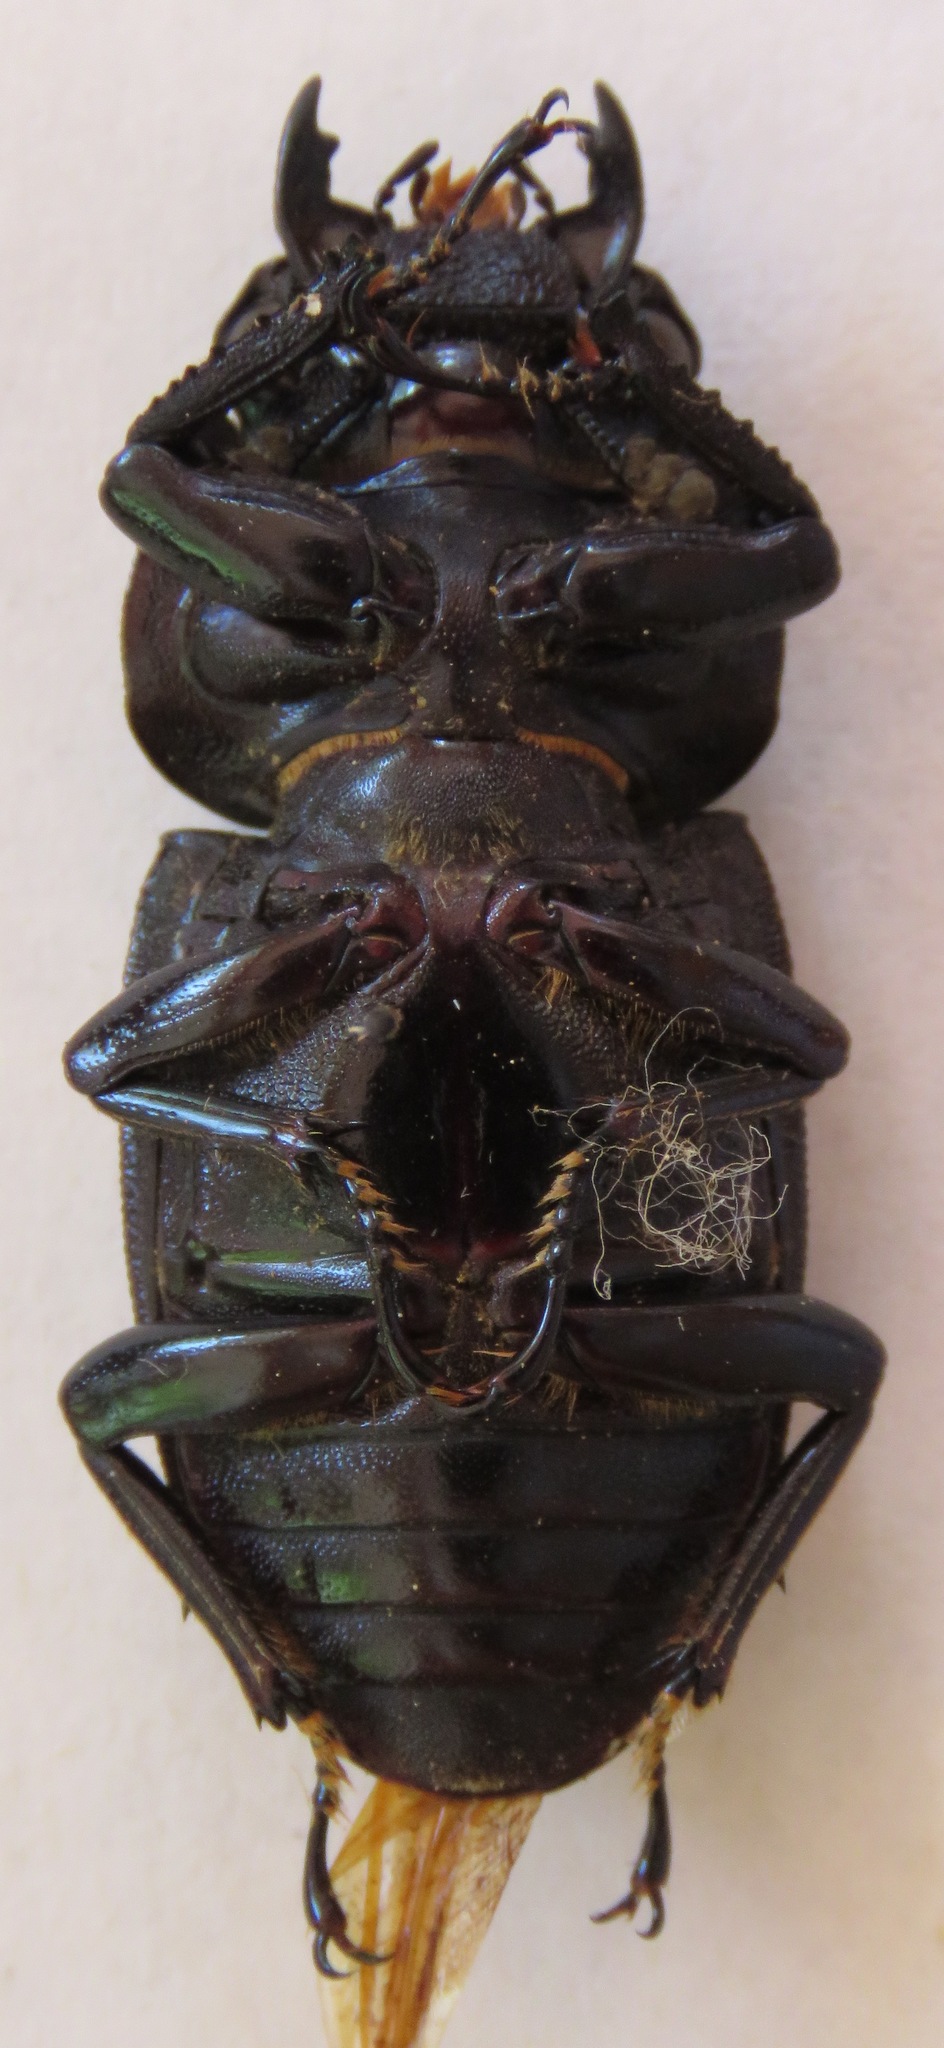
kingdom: Animalia
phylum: Arthropoda
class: Insecta
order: Coleoptera
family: Lucanidae
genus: Dorcus
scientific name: Dorcus curvidens
